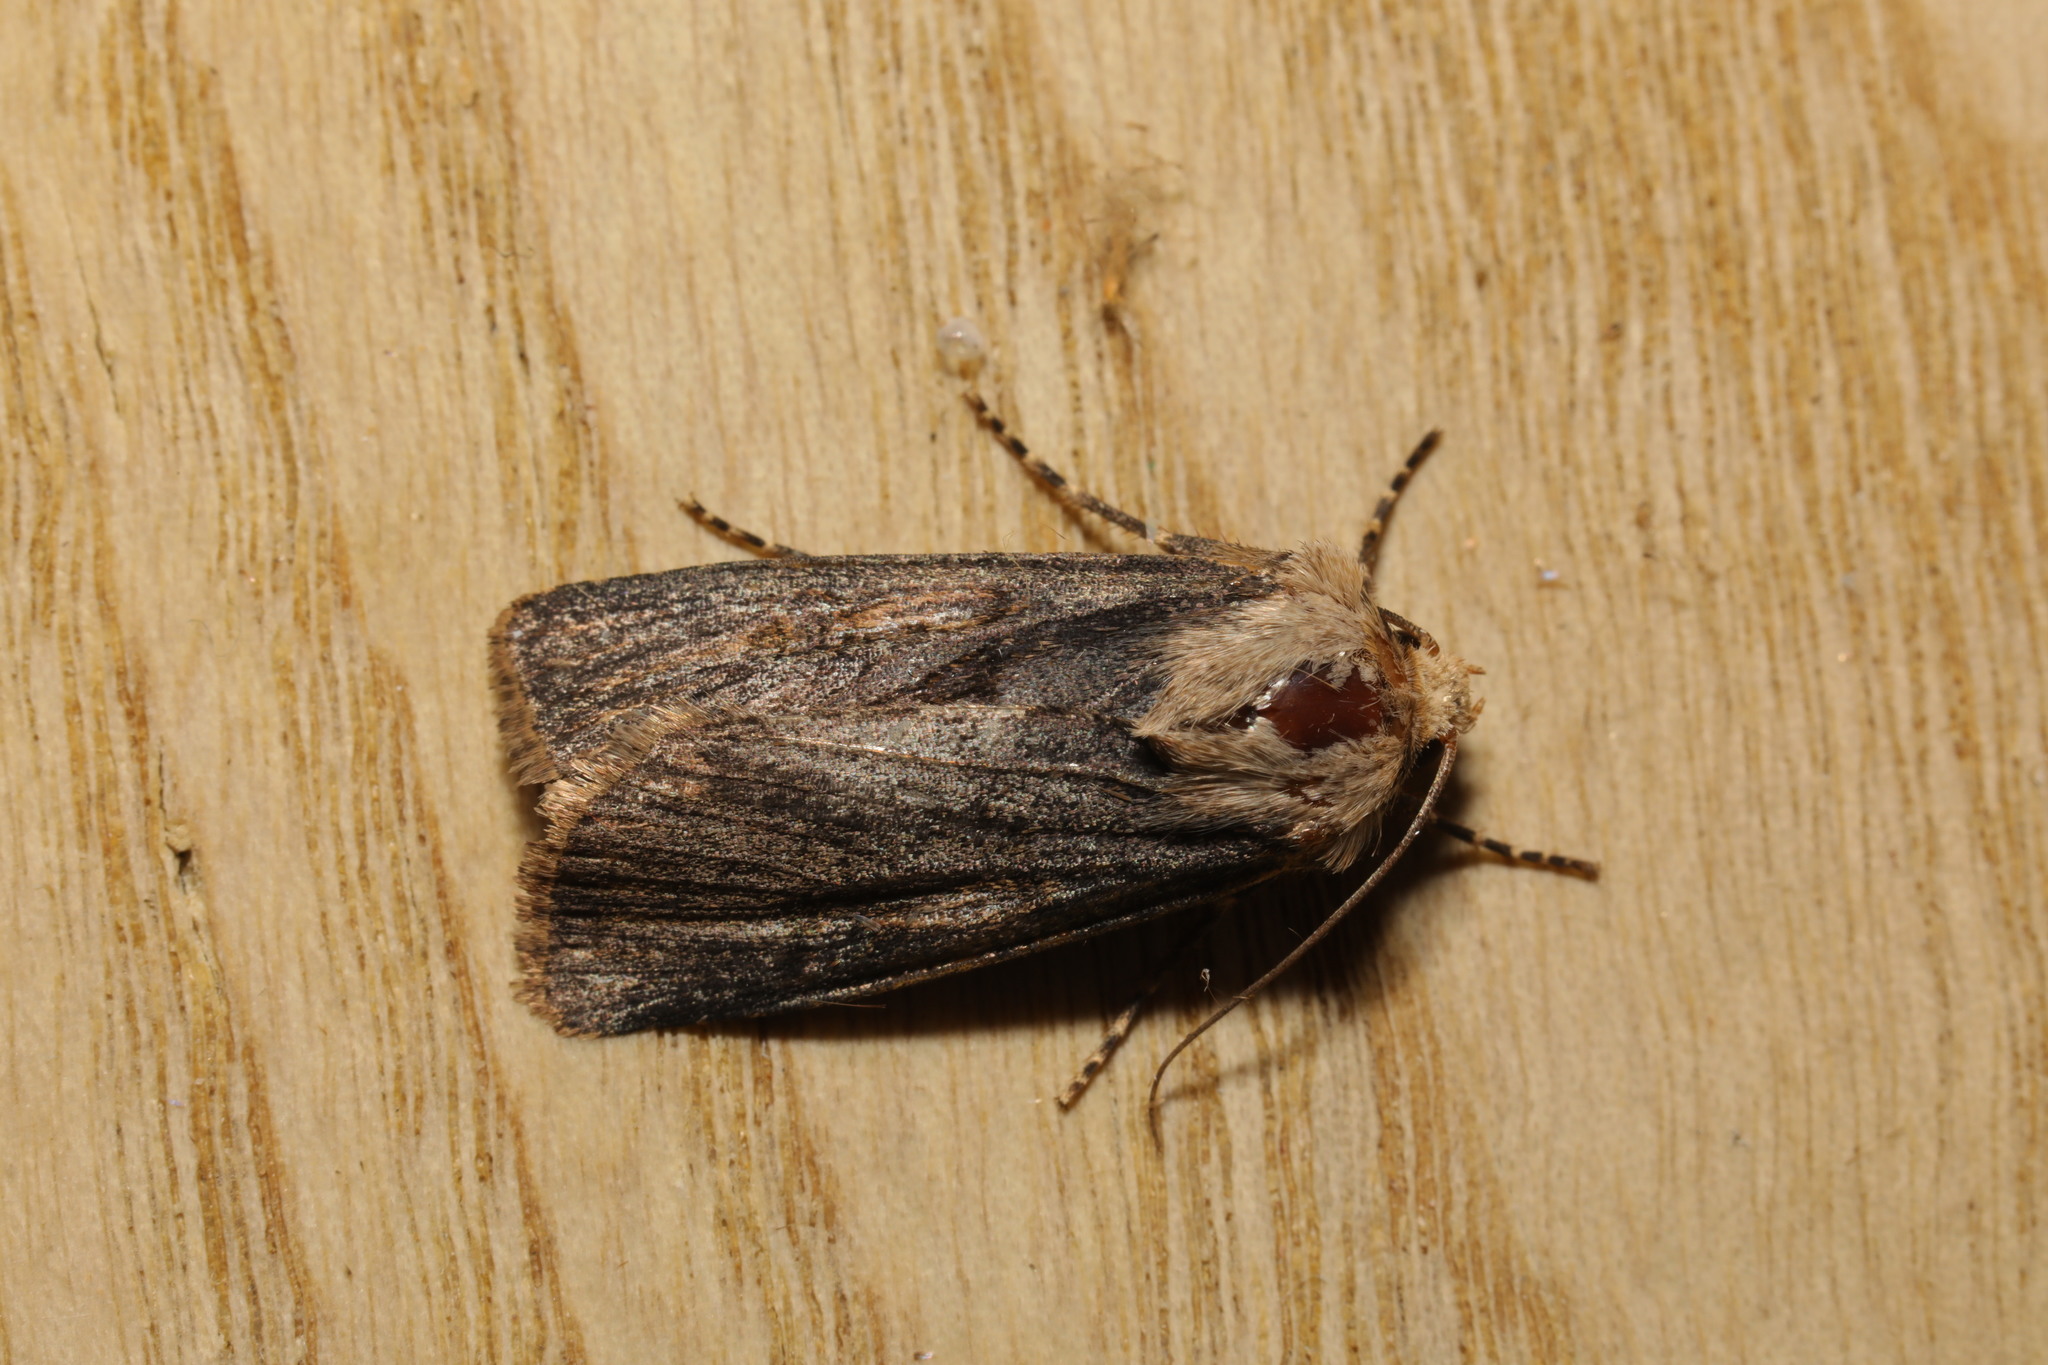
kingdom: Animalia
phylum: Arthropoda
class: Insecta
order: Lepidoptera
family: Noctuidae
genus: Agrotis
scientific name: Agrotis puta
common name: Shuttle-shaped dart
